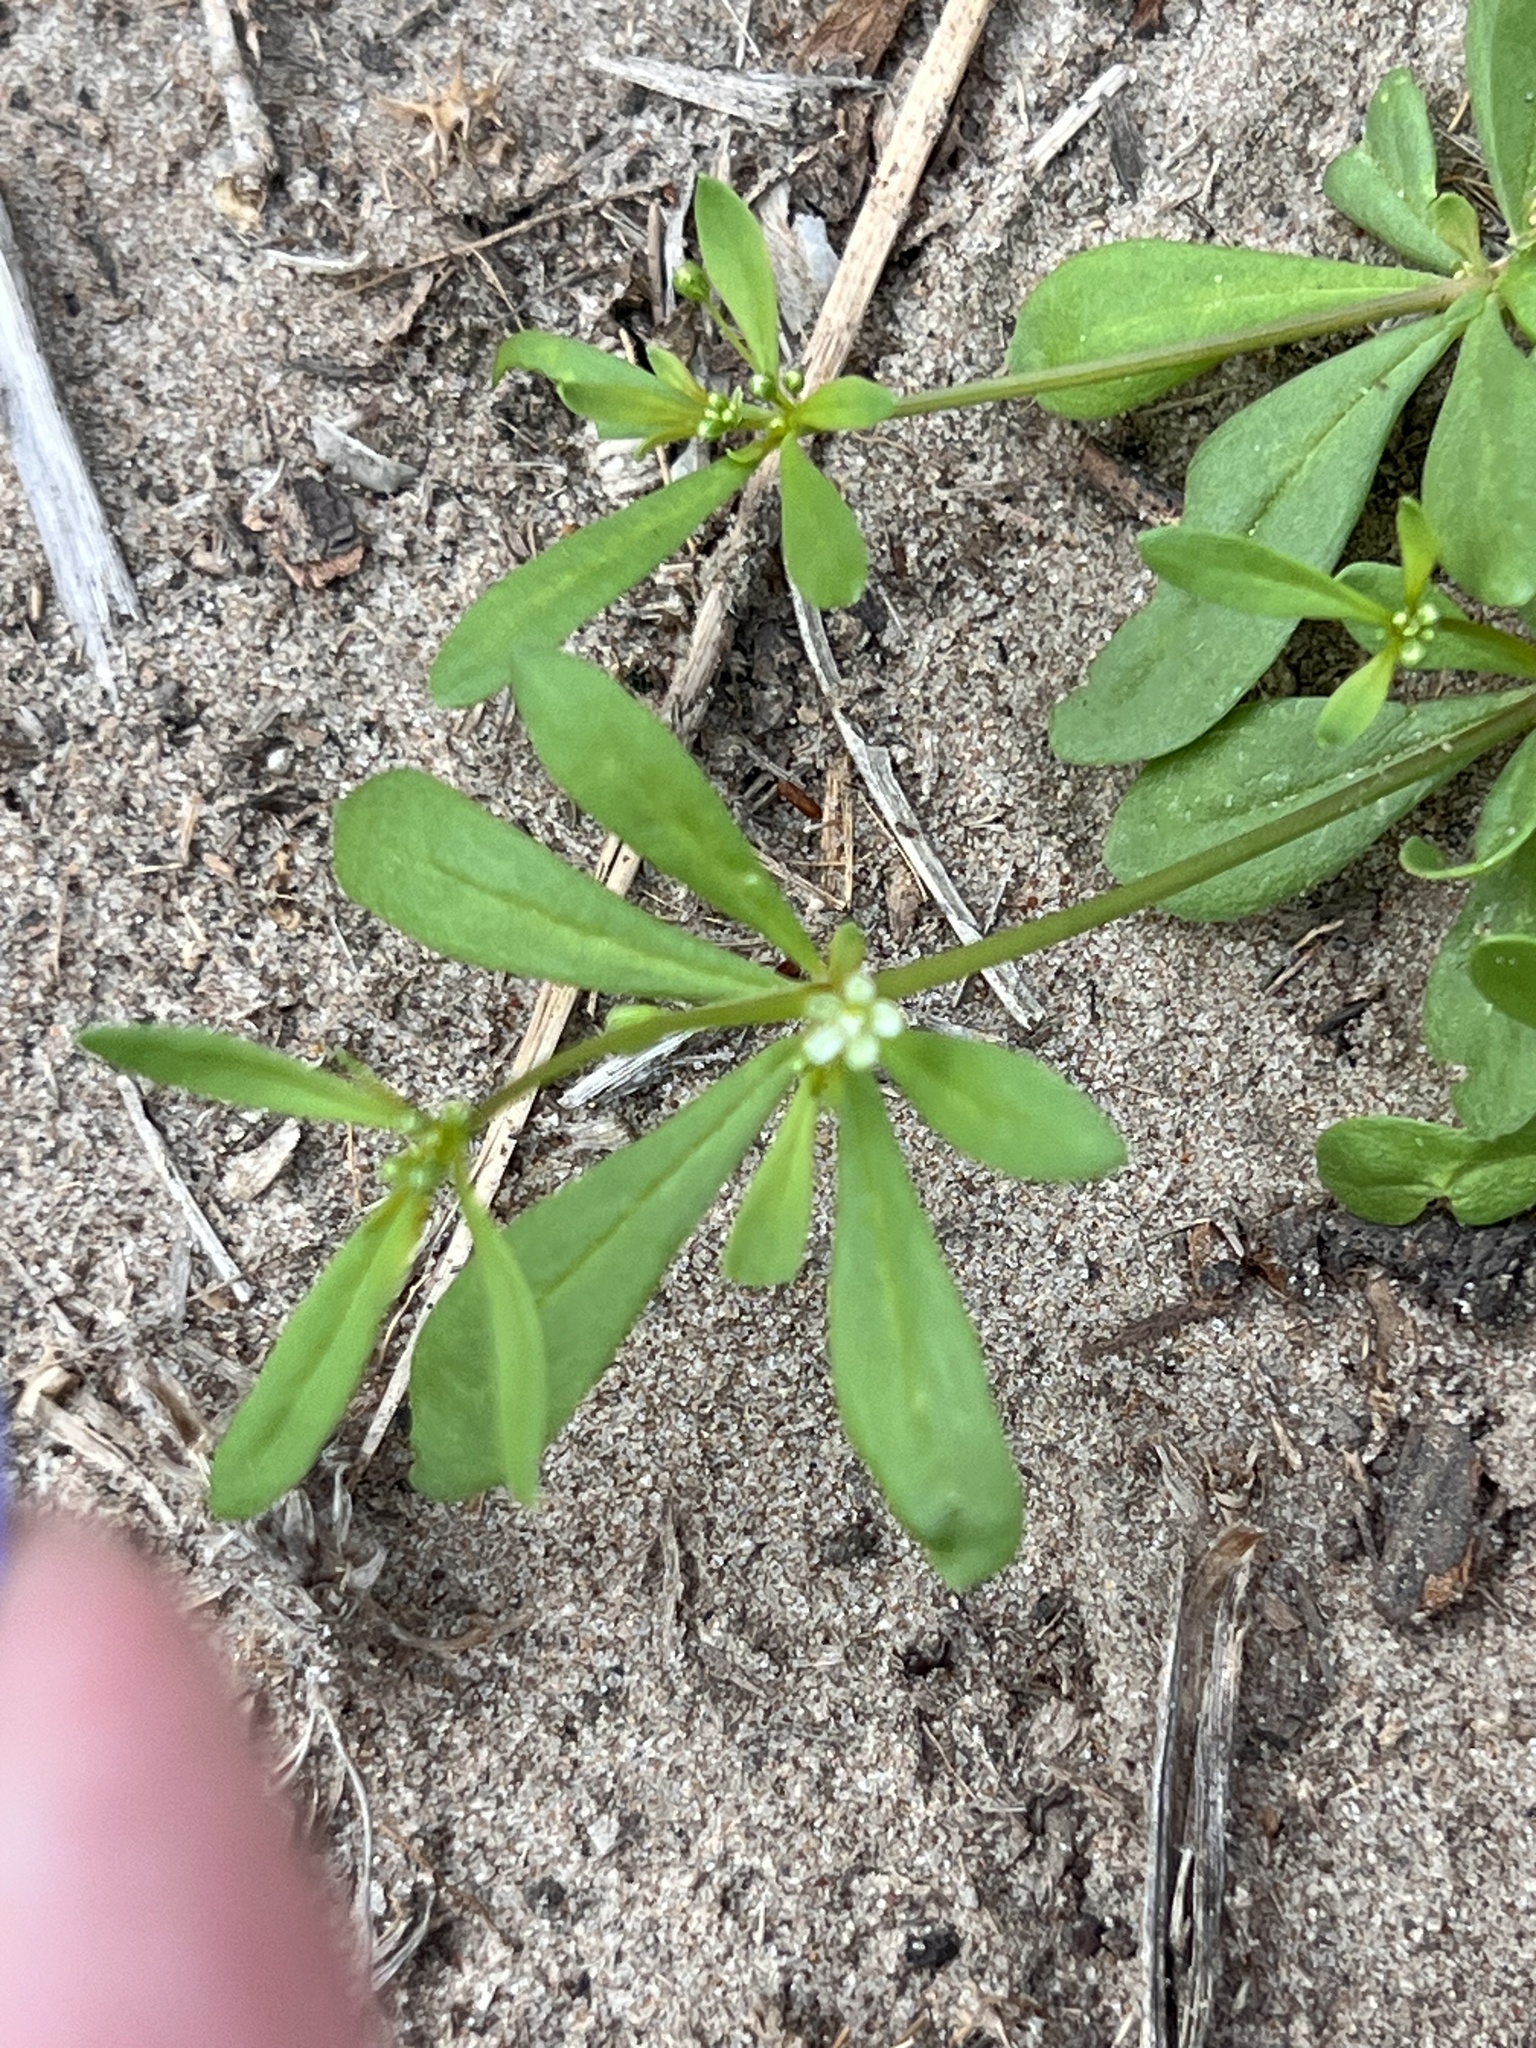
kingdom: Plantae
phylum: Tracheophyta
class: Magnoliopsida
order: Caryophyllales
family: Molluginaceae
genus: Mollugo
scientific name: Mollugo verticillata
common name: Green carpetweed
